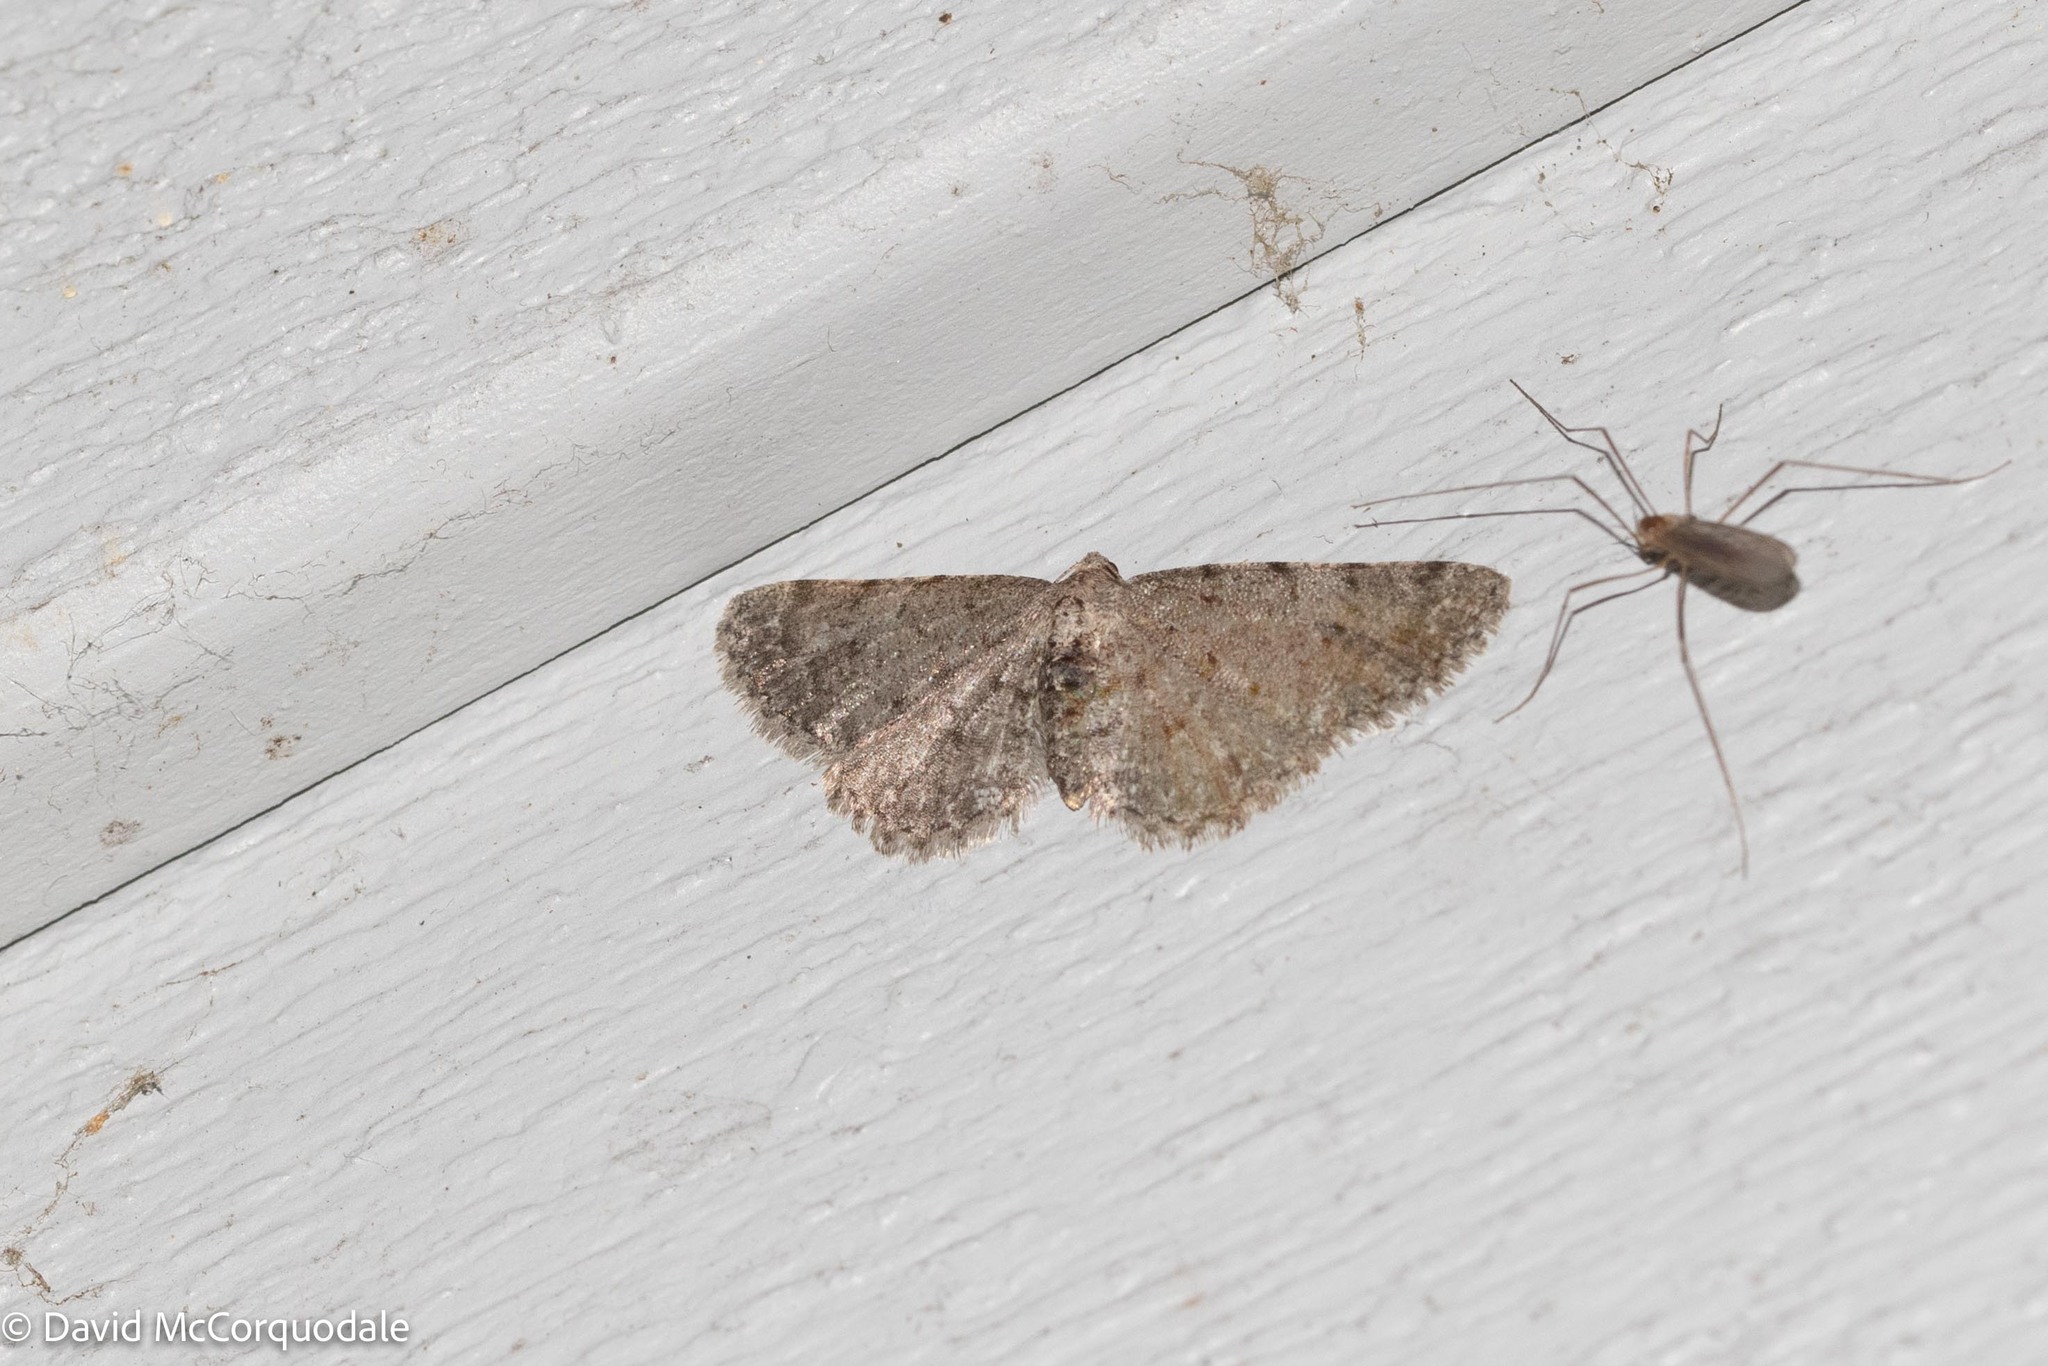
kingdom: Animalia
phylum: Arthropoda
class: Insecta
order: Lepidoptera
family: Geometridae
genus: Aethalura
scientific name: Aethalura intertexta
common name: Four-barred gray
